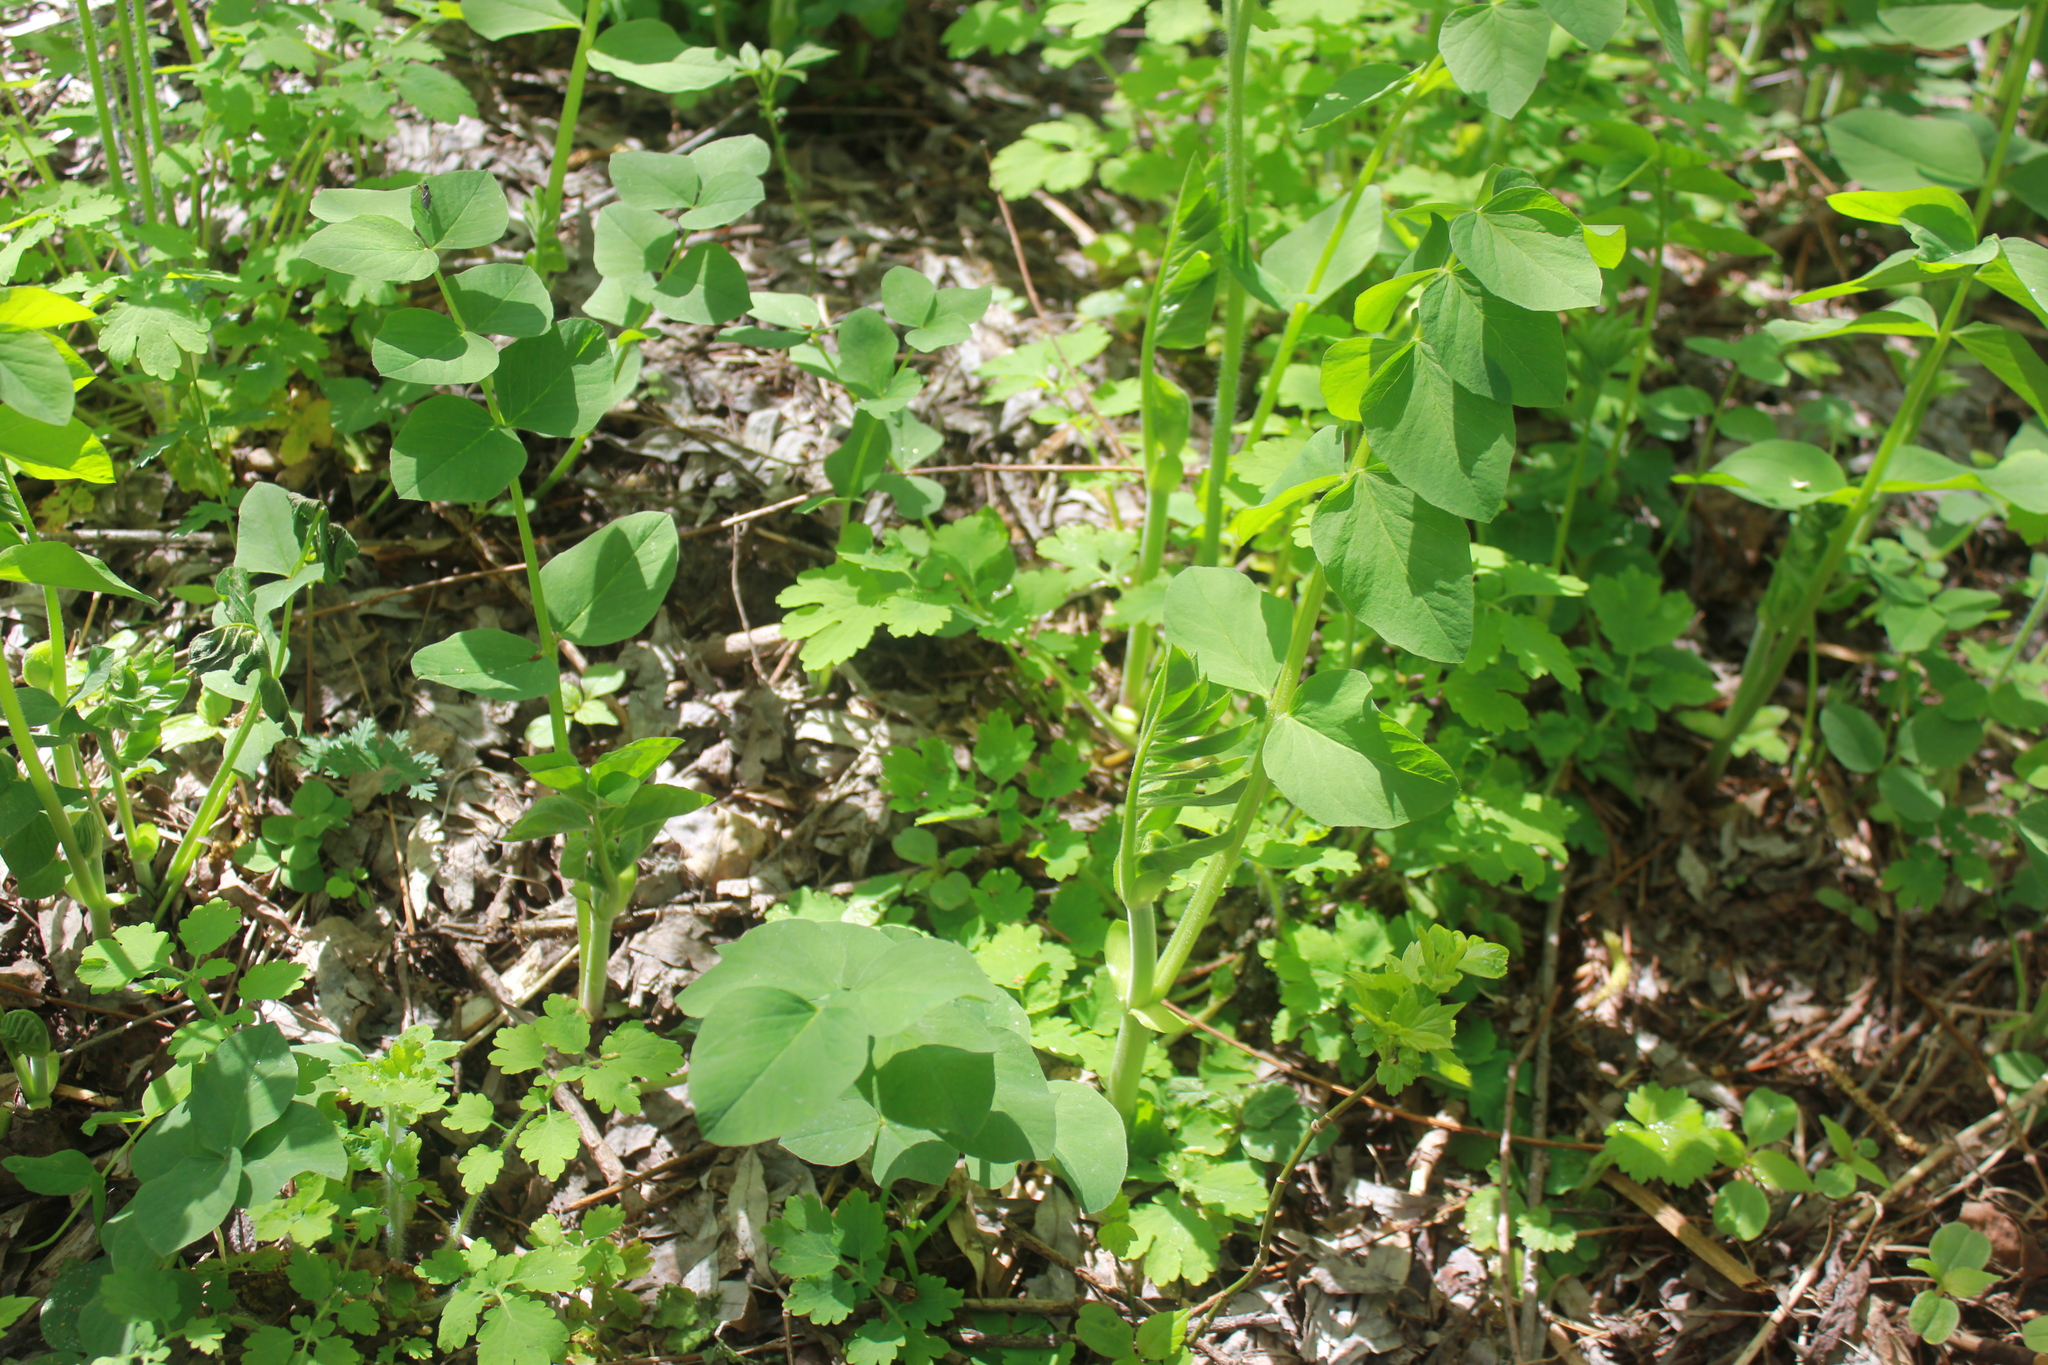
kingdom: Plantae
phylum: Tracheophyta
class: Magnoliopsida
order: Fabales
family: Fabaceae
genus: Galega
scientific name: Galega orientalis
